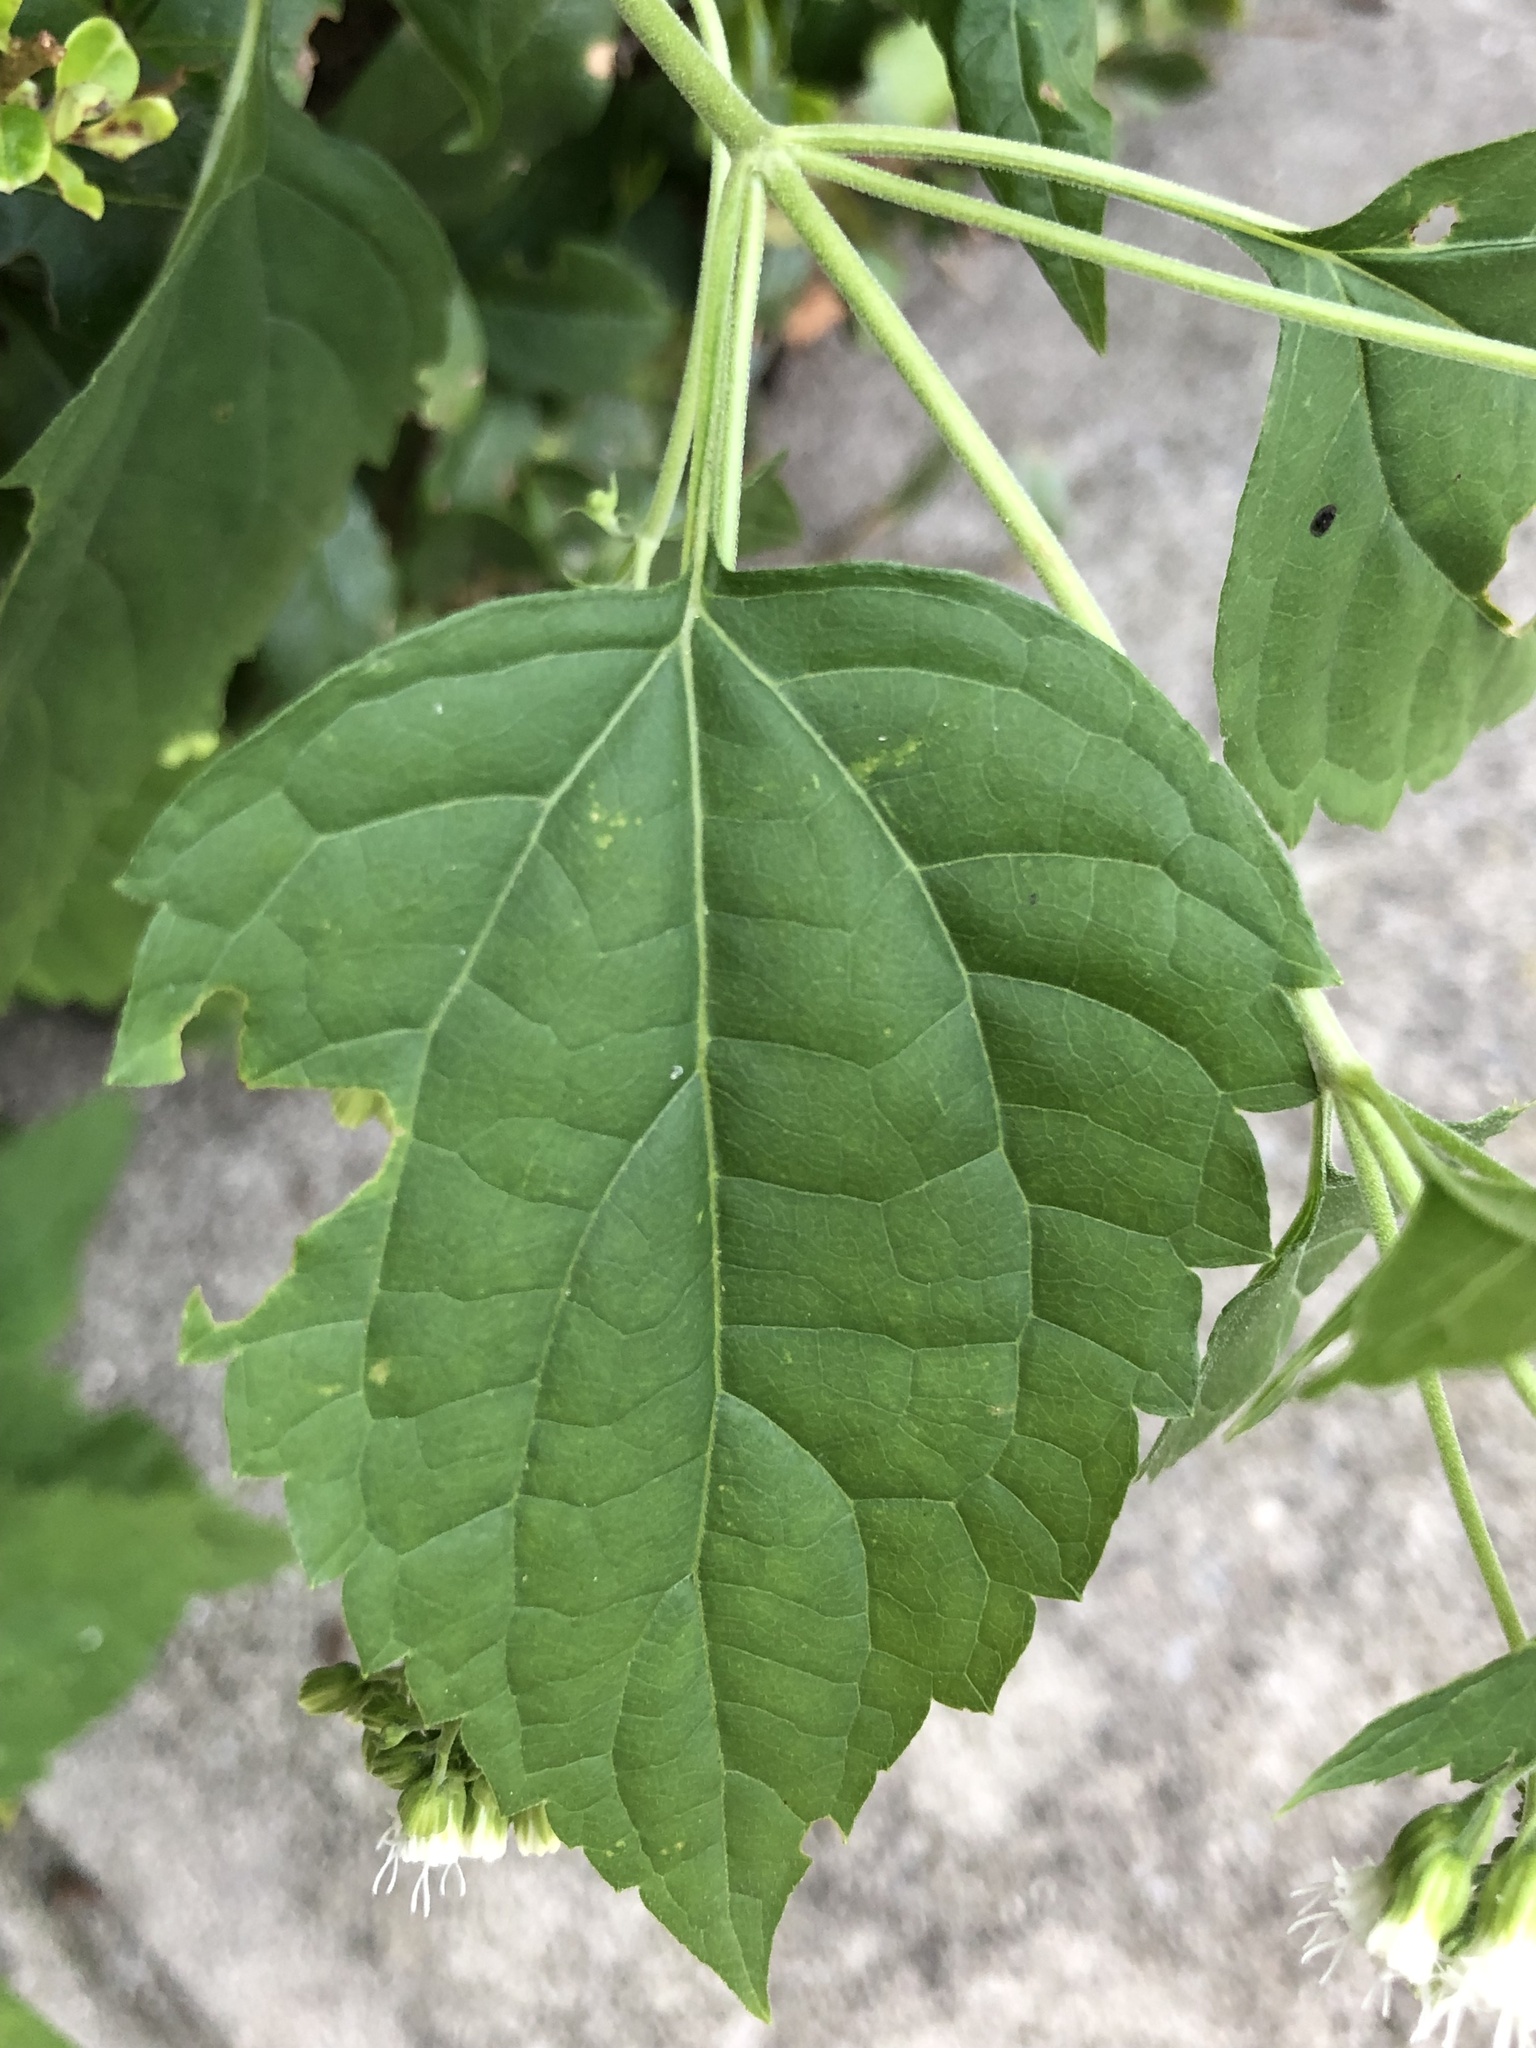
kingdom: Plantae
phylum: Tracheophyta
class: Magnoliopsida
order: Asterales
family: Asteraceae
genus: Ageratina
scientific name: Ageratina altissima
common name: White snakeroot
